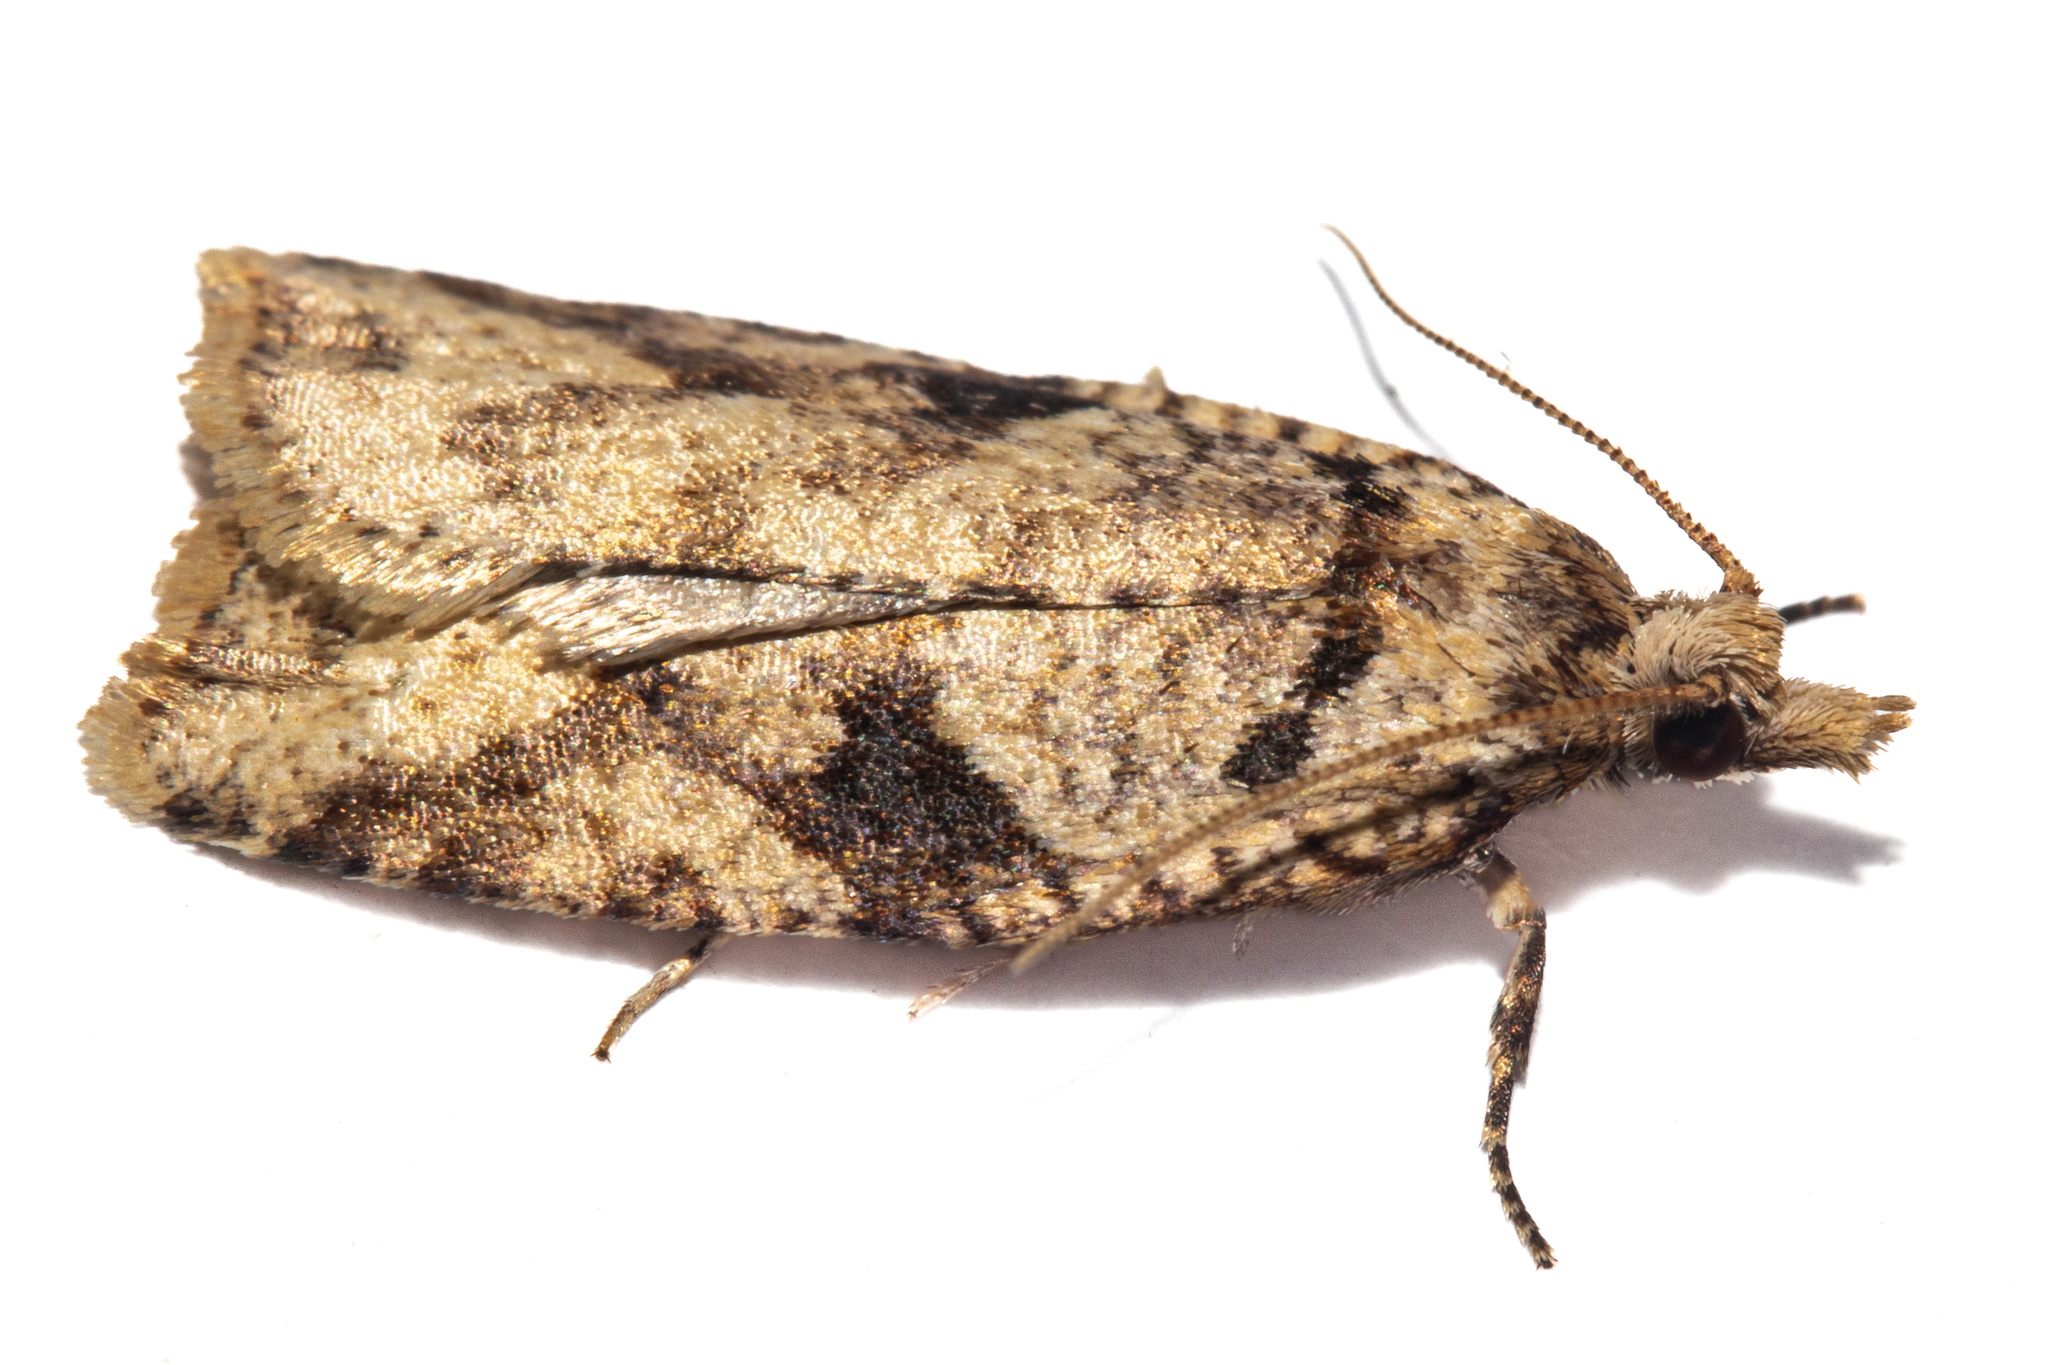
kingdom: Animalia
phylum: Arthropoda
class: Insecta
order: Lepidoptera
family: Tortricidae
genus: Ctenopseustis
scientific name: Ctenopseustis obliquana
